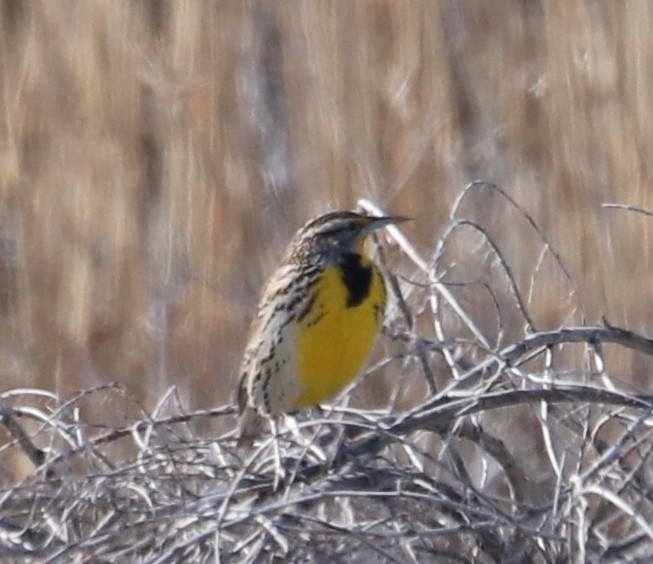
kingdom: Animalia
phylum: Chordata
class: Aves
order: Passeriformes
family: Icteridae
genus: Sturnella
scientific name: Sturnella neglecta
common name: Western meadowlark
